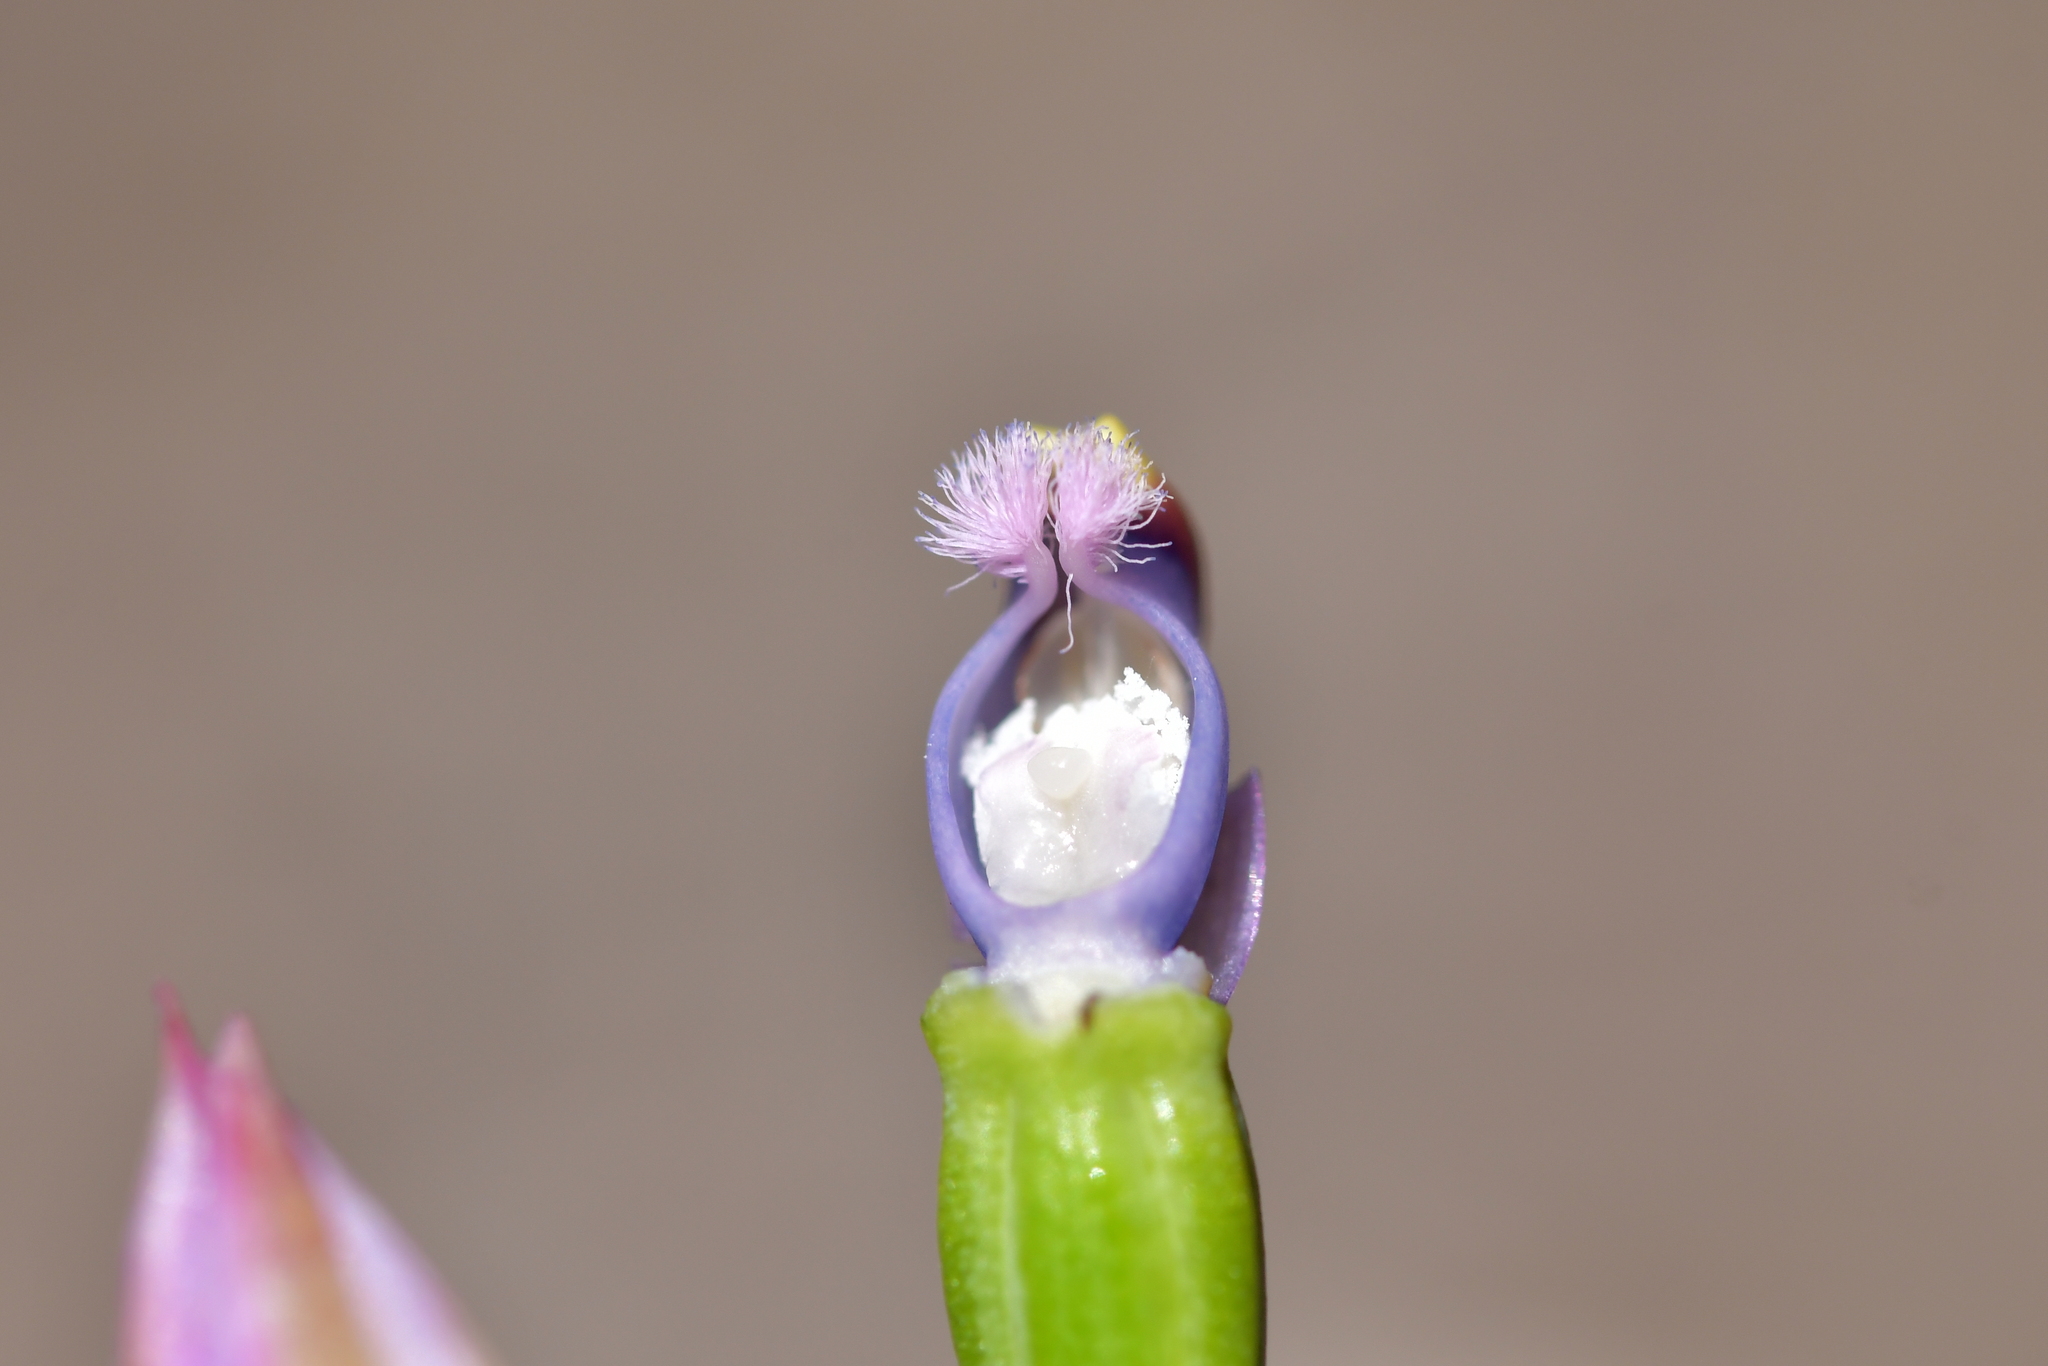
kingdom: Plantae
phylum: Tracheophyta
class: Liliopsida
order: Asparagales
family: Orchidaceae
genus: Thelymitra
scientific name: Thelymitra malvina
